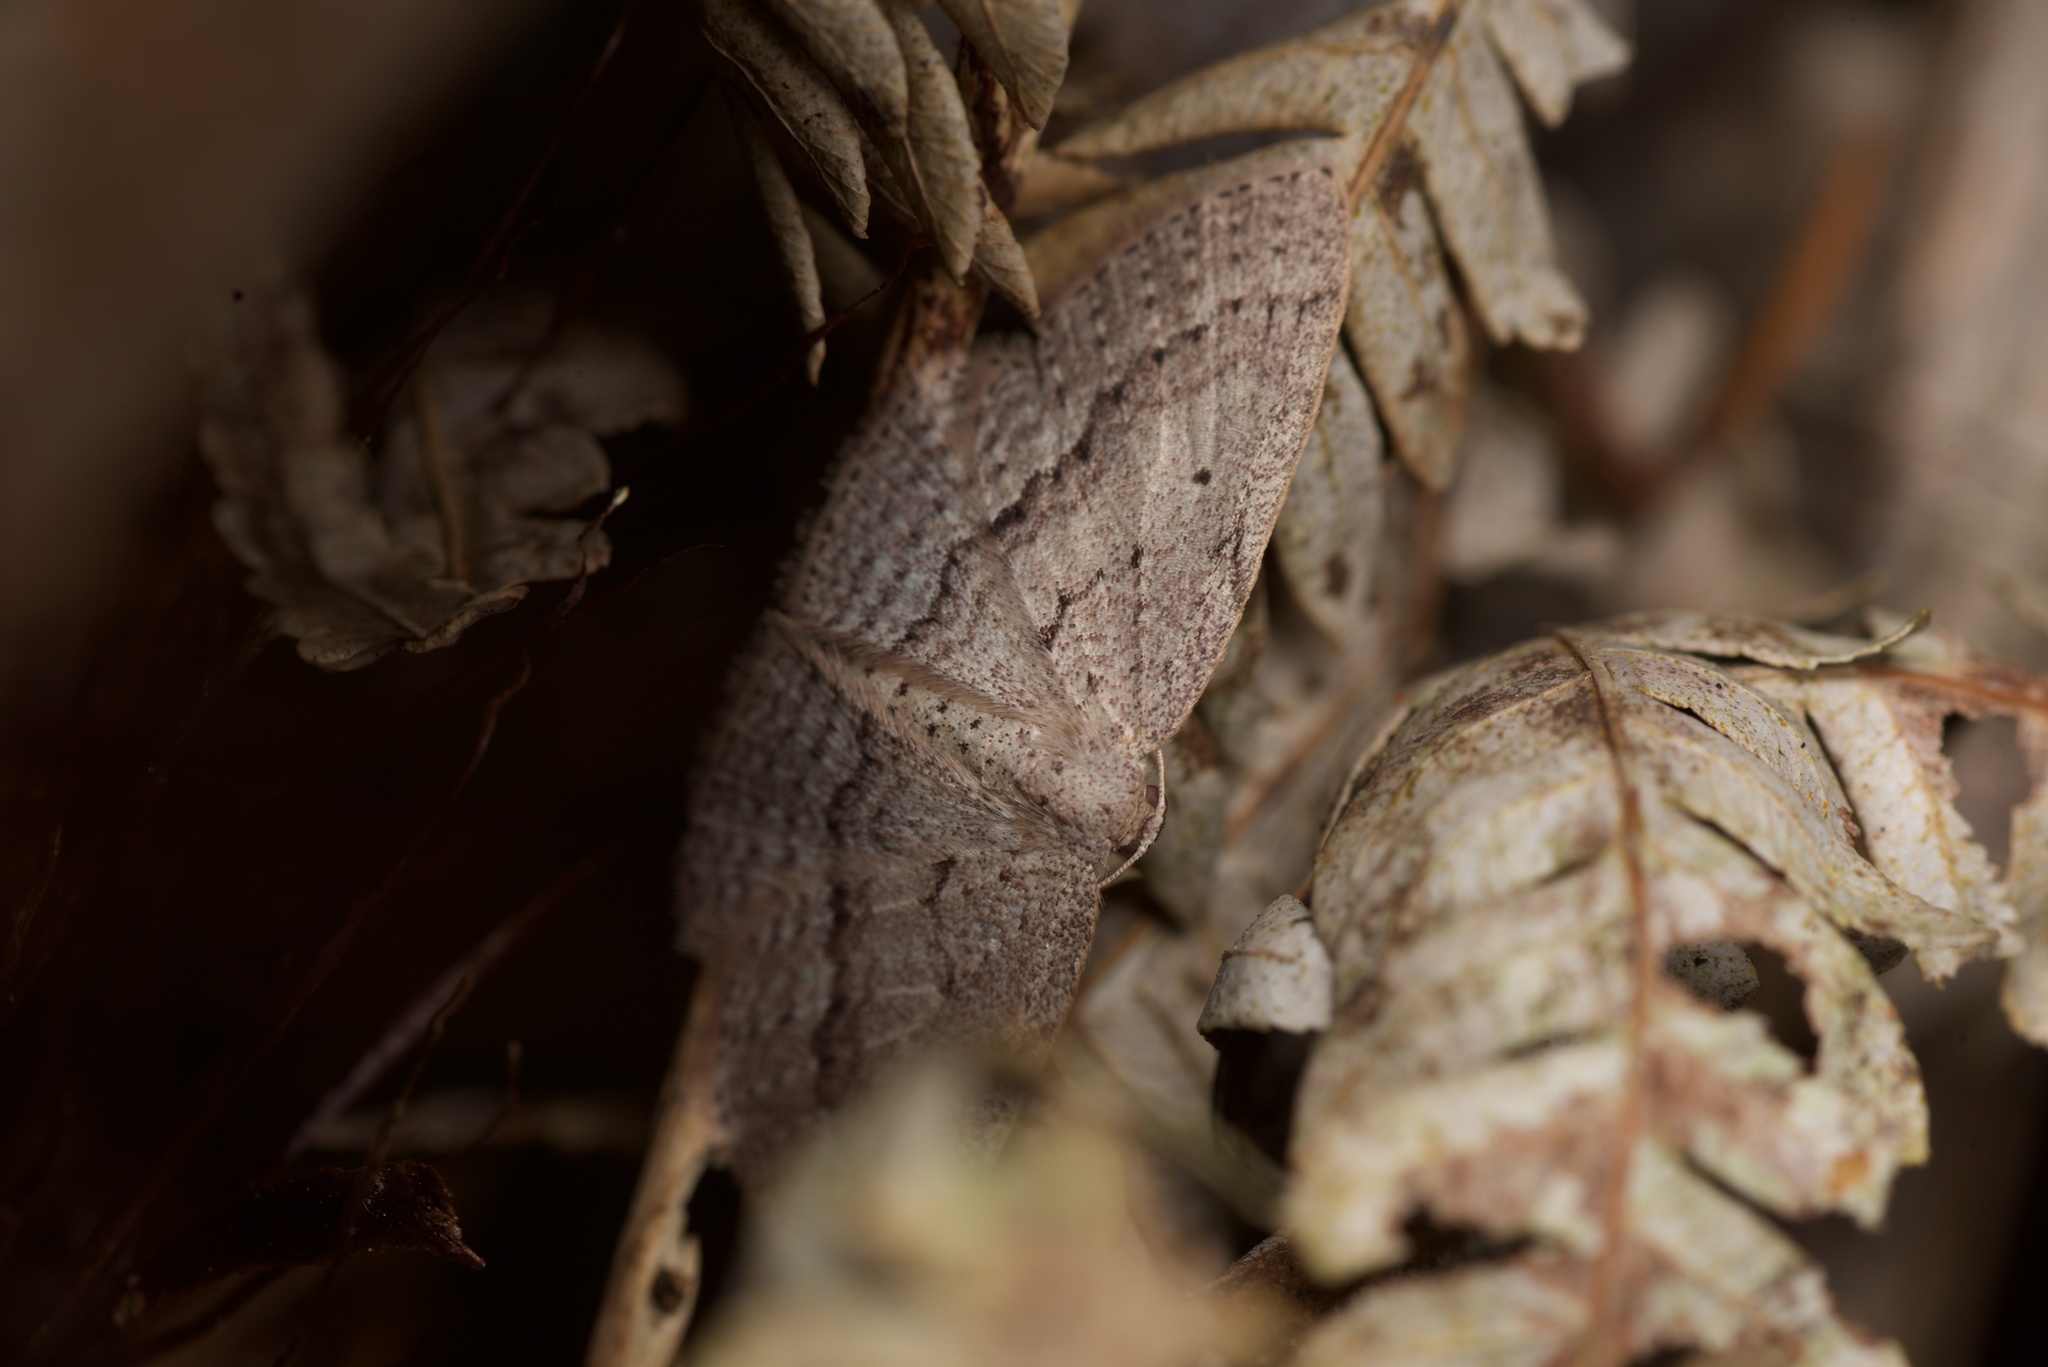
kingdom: Animalia
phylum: Arthropoda
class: Insecta
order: Lepidoptera
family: Geometridae
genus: Poecilasthena
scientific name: Poecilasthena schistaria
